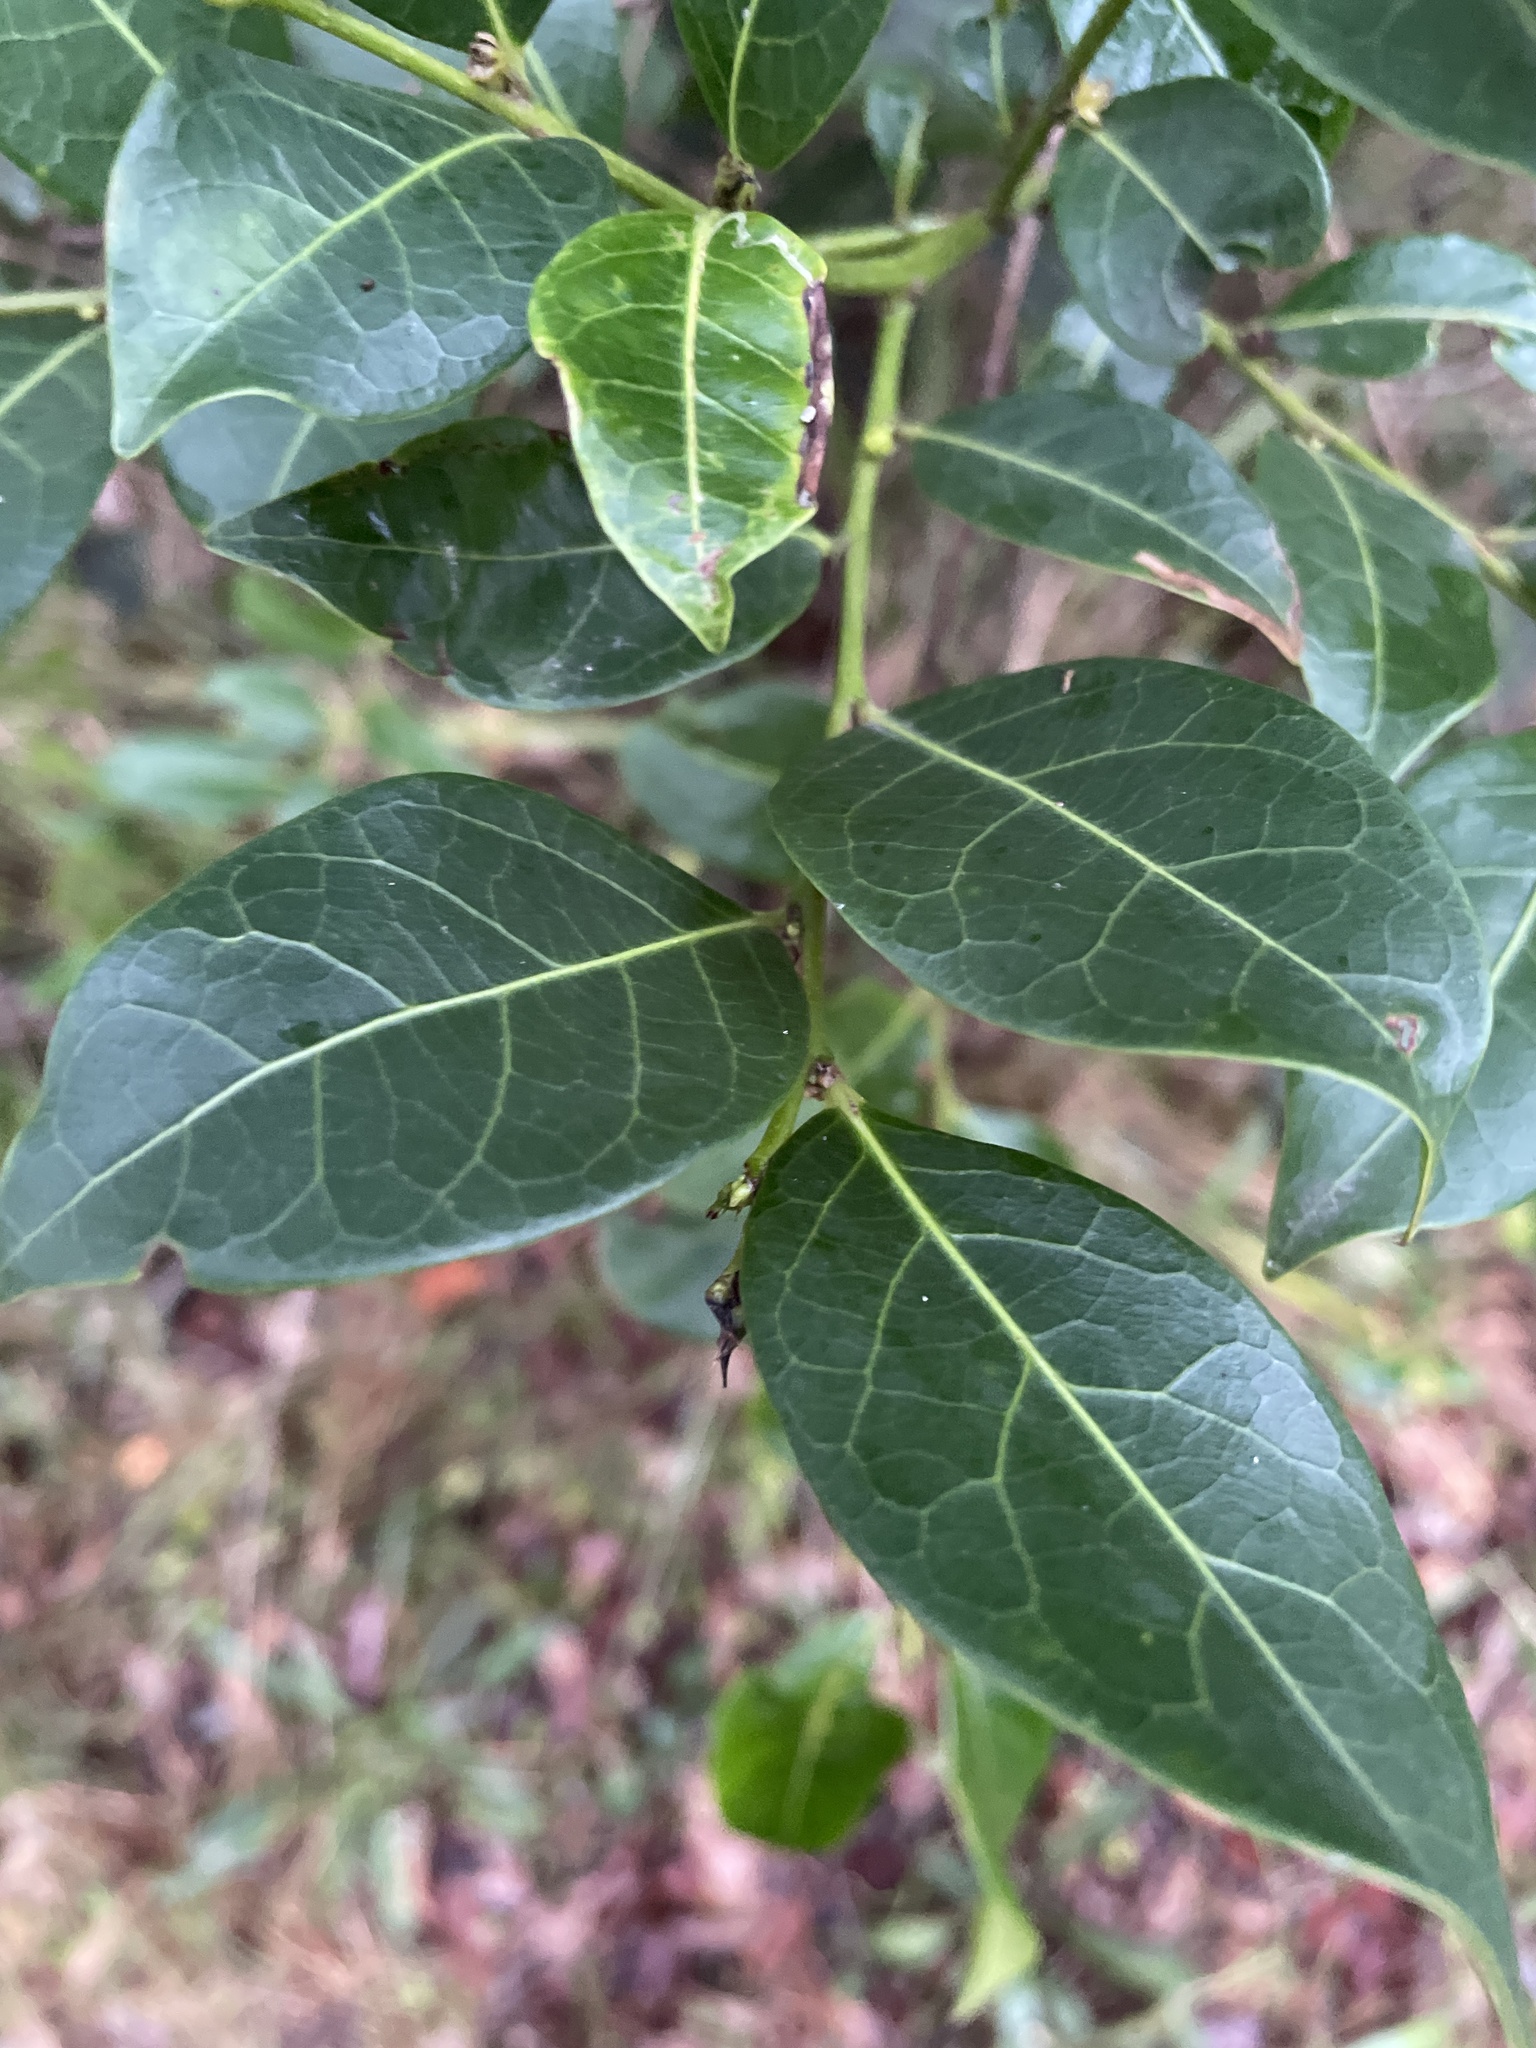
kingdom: Plantae
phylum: Tracheophyta
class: Magnoliopsida
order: Malpighiales
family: Phyllanthaceae
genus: Glochidion
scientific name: Glochidion ferdinandi
